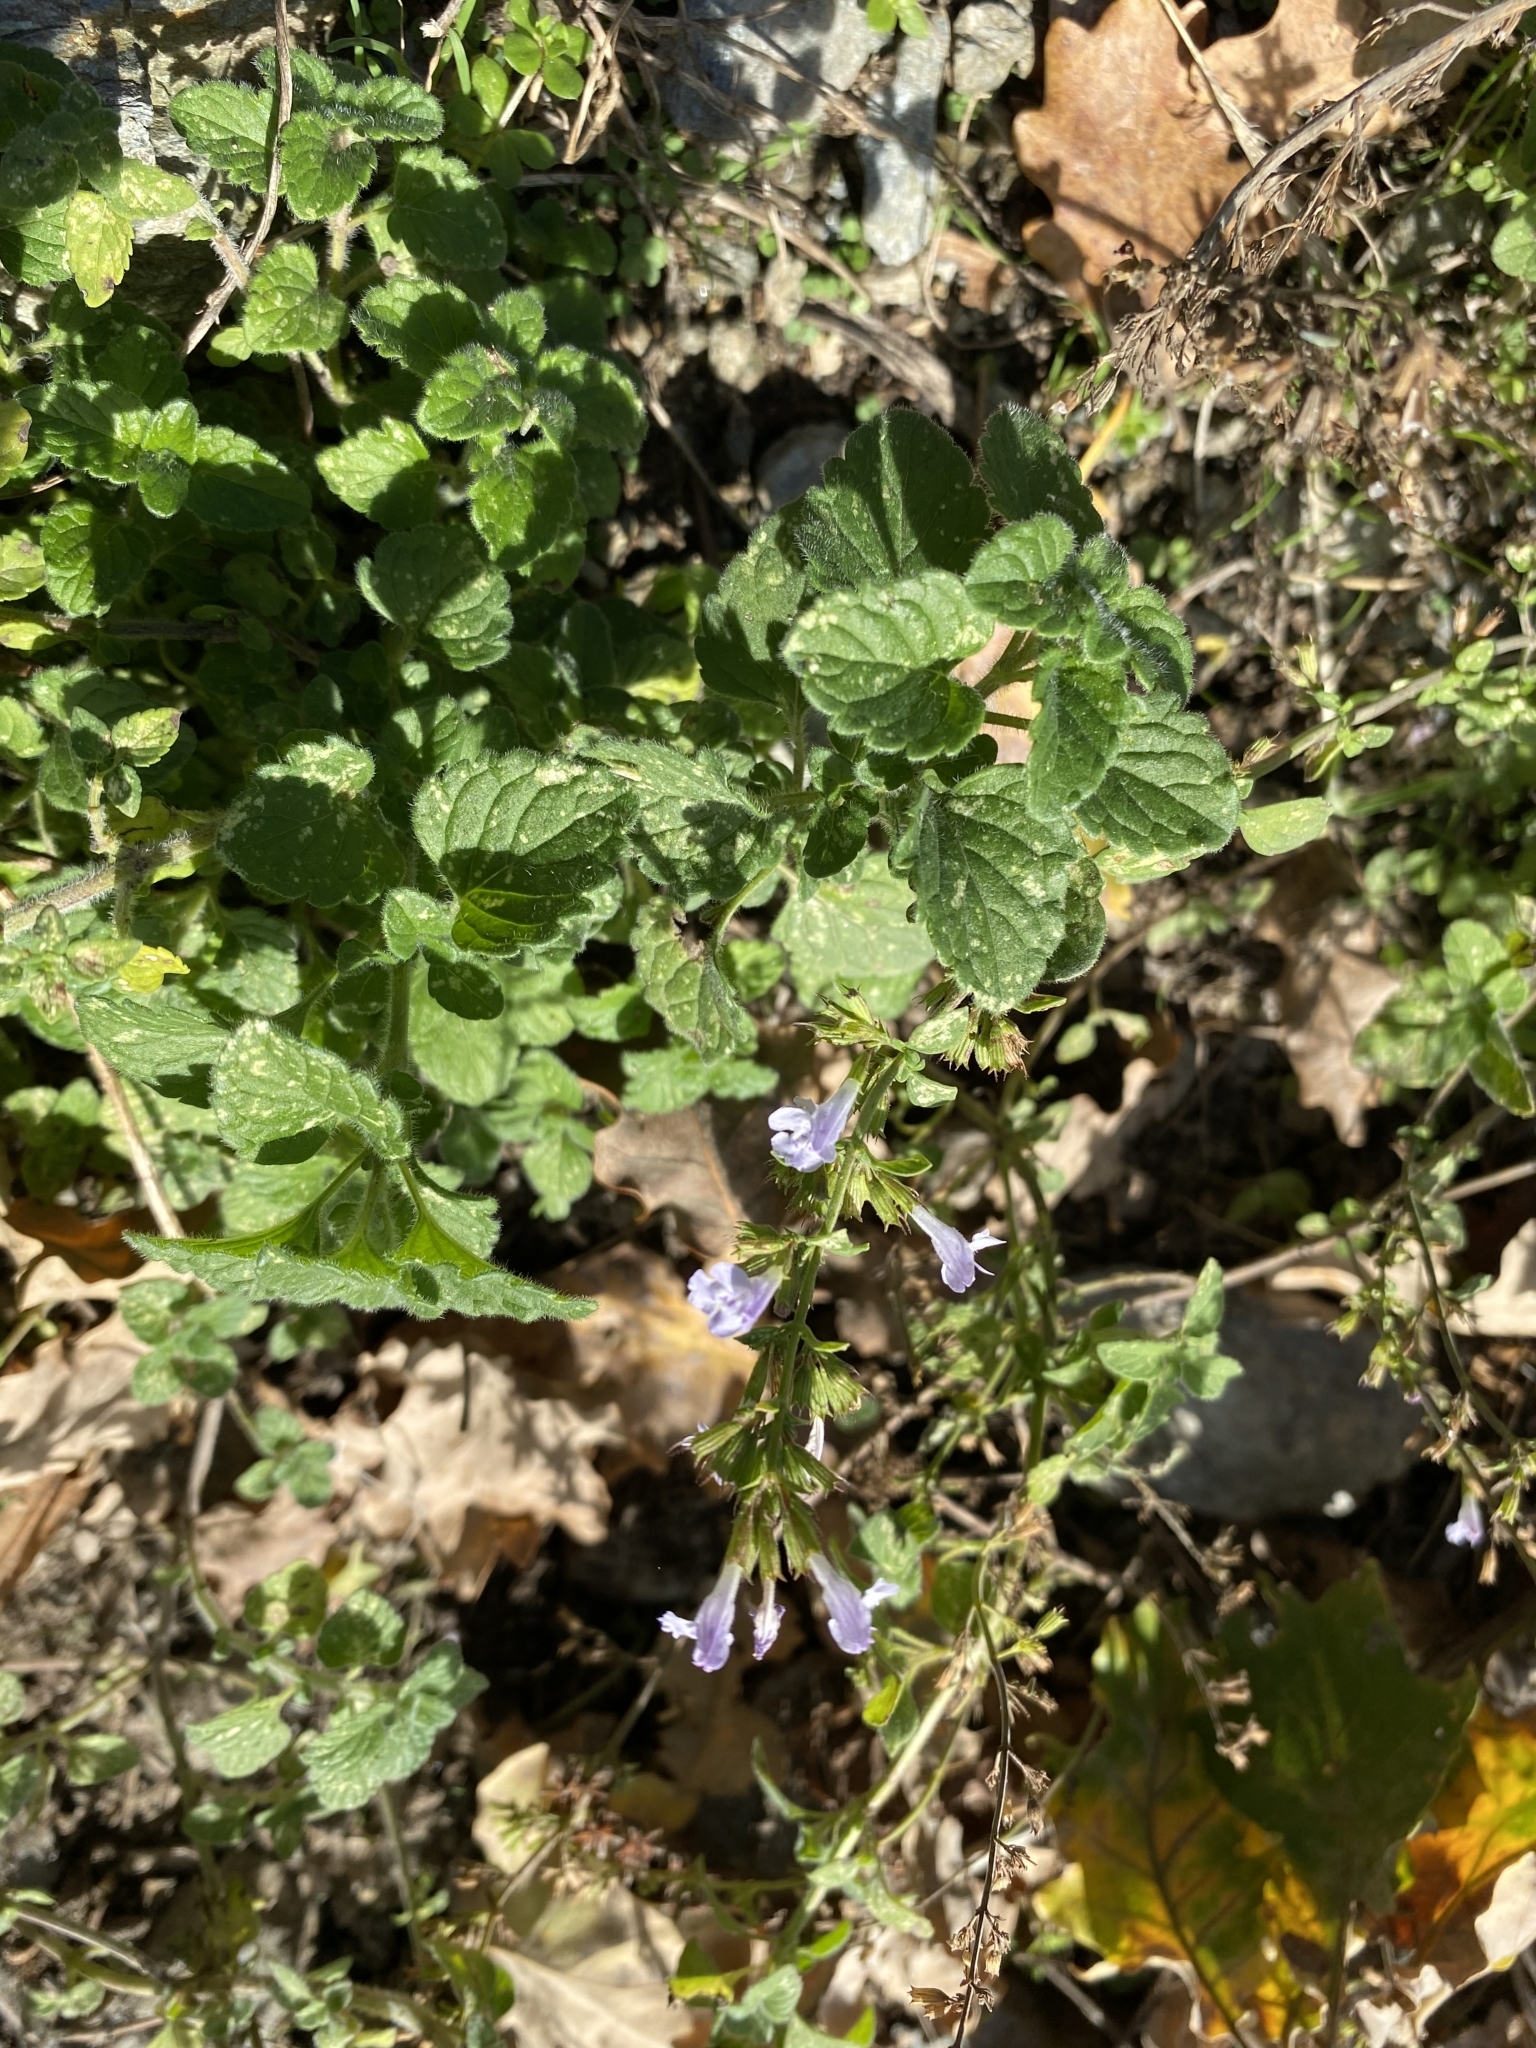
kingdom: Plantae
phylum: Tracheophyta
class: Magnoliopsida
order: Lamiales
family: Lamiaceae
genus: Clinopodium
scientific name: Clinopodium nepeta
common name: Lesser calamint
